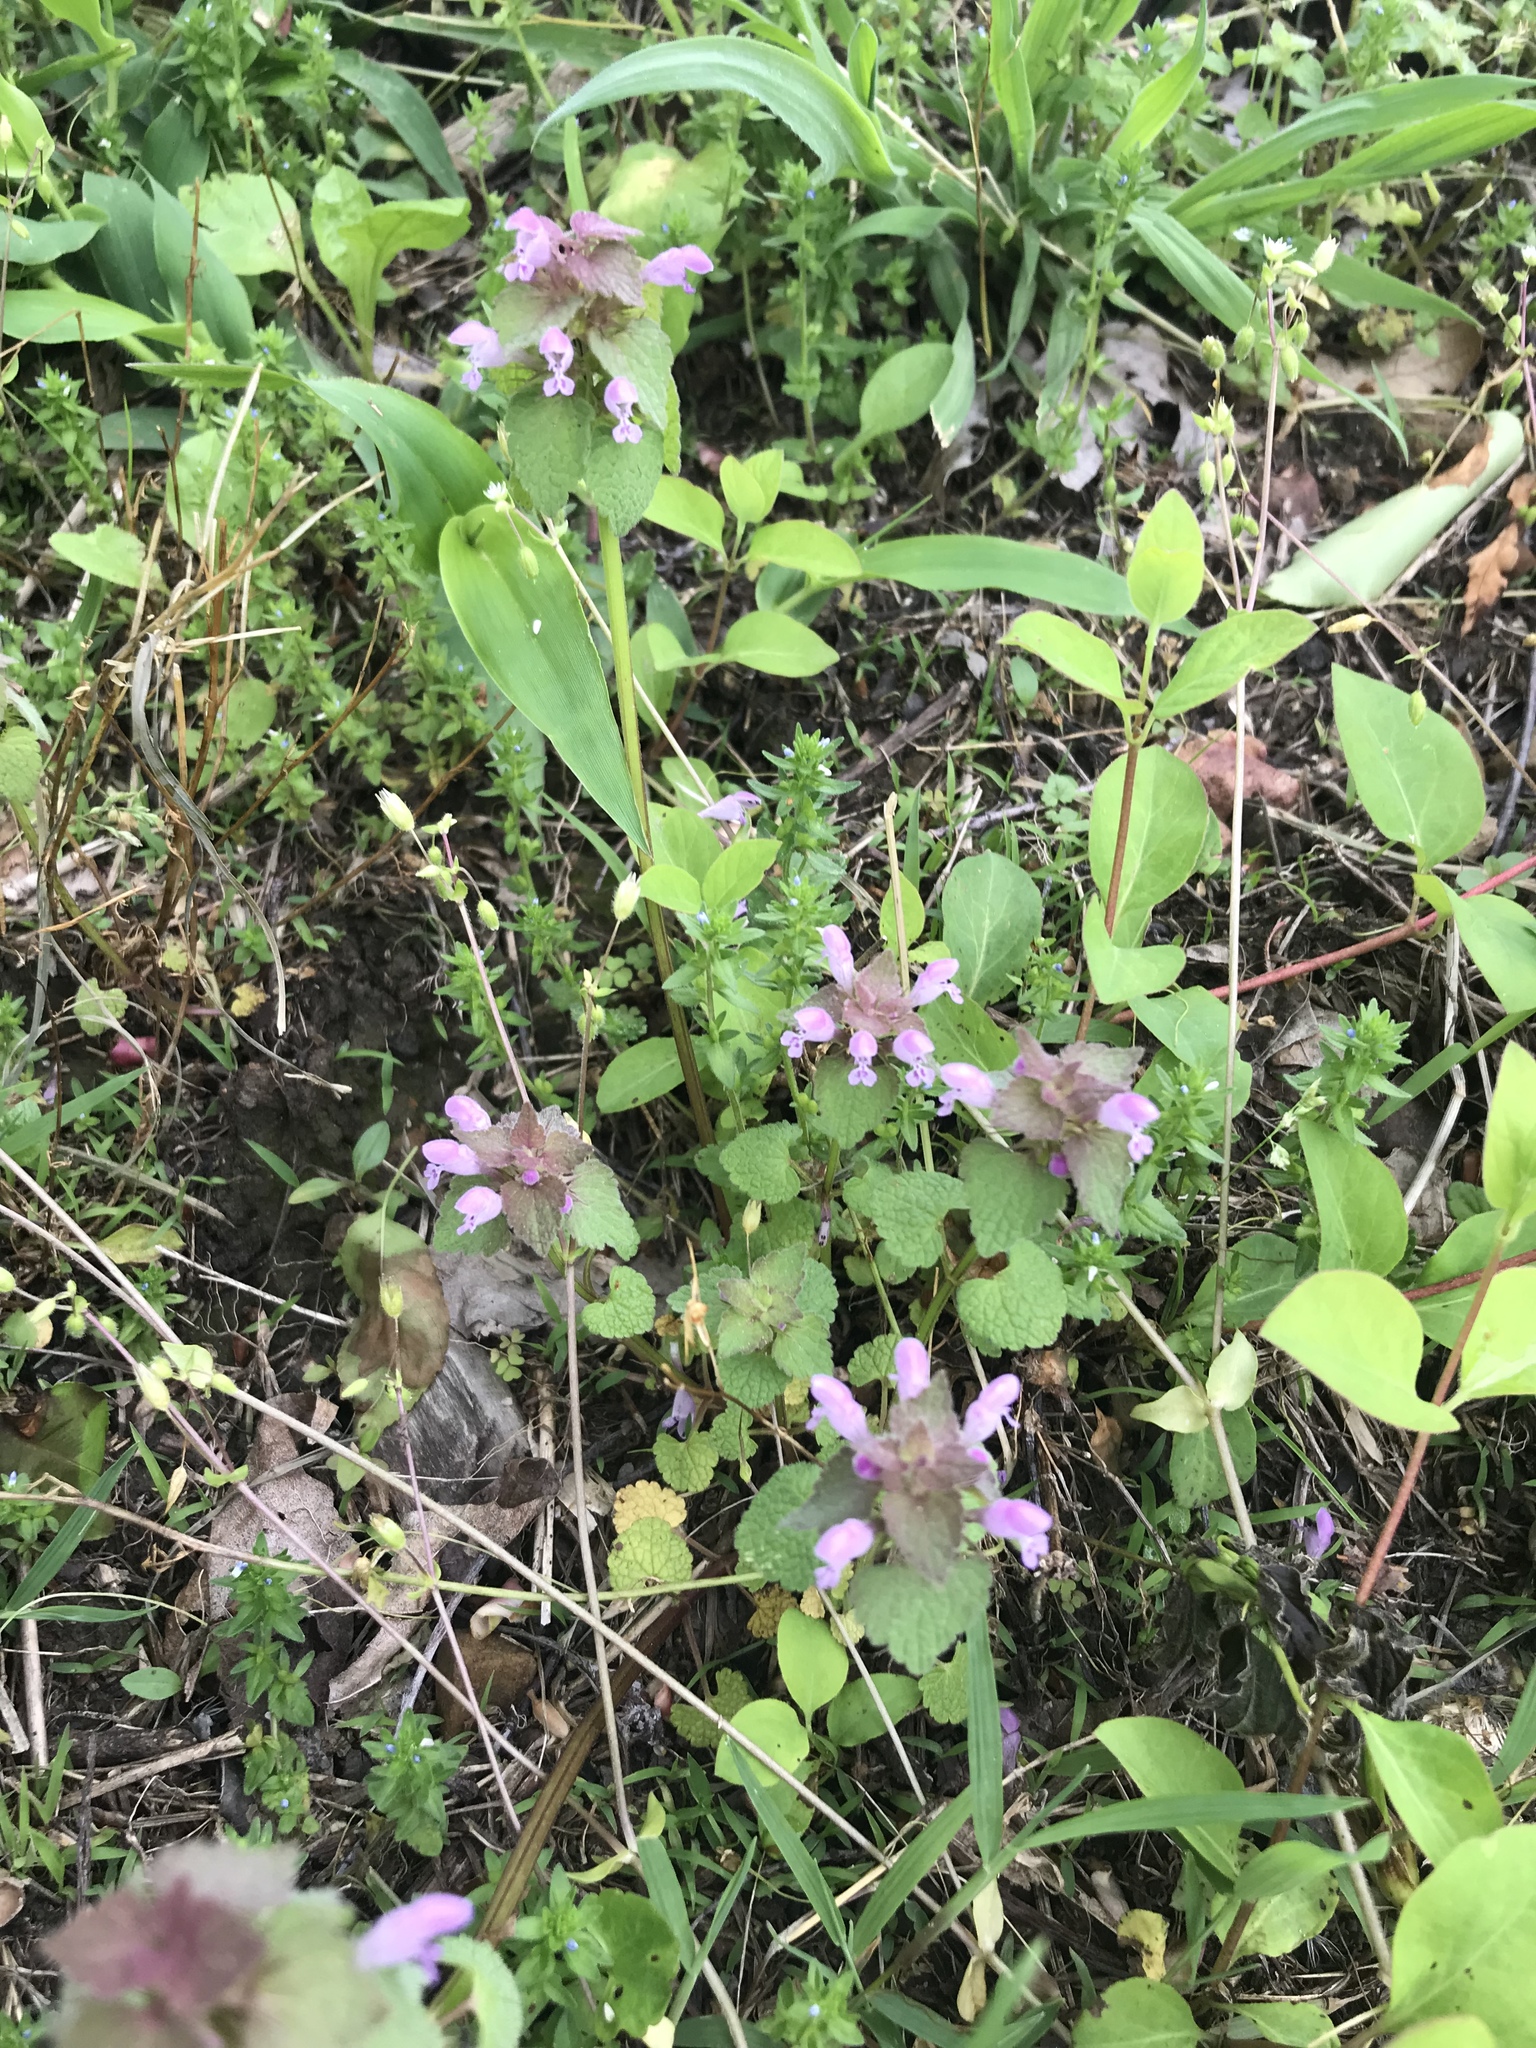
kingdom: Plantae
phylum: Tracheophyta
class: Magnoliopsida
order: Lamiales
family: Lamiaceae
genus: Lamium
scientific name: Lamium purpureum
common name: Red dead-nettle
